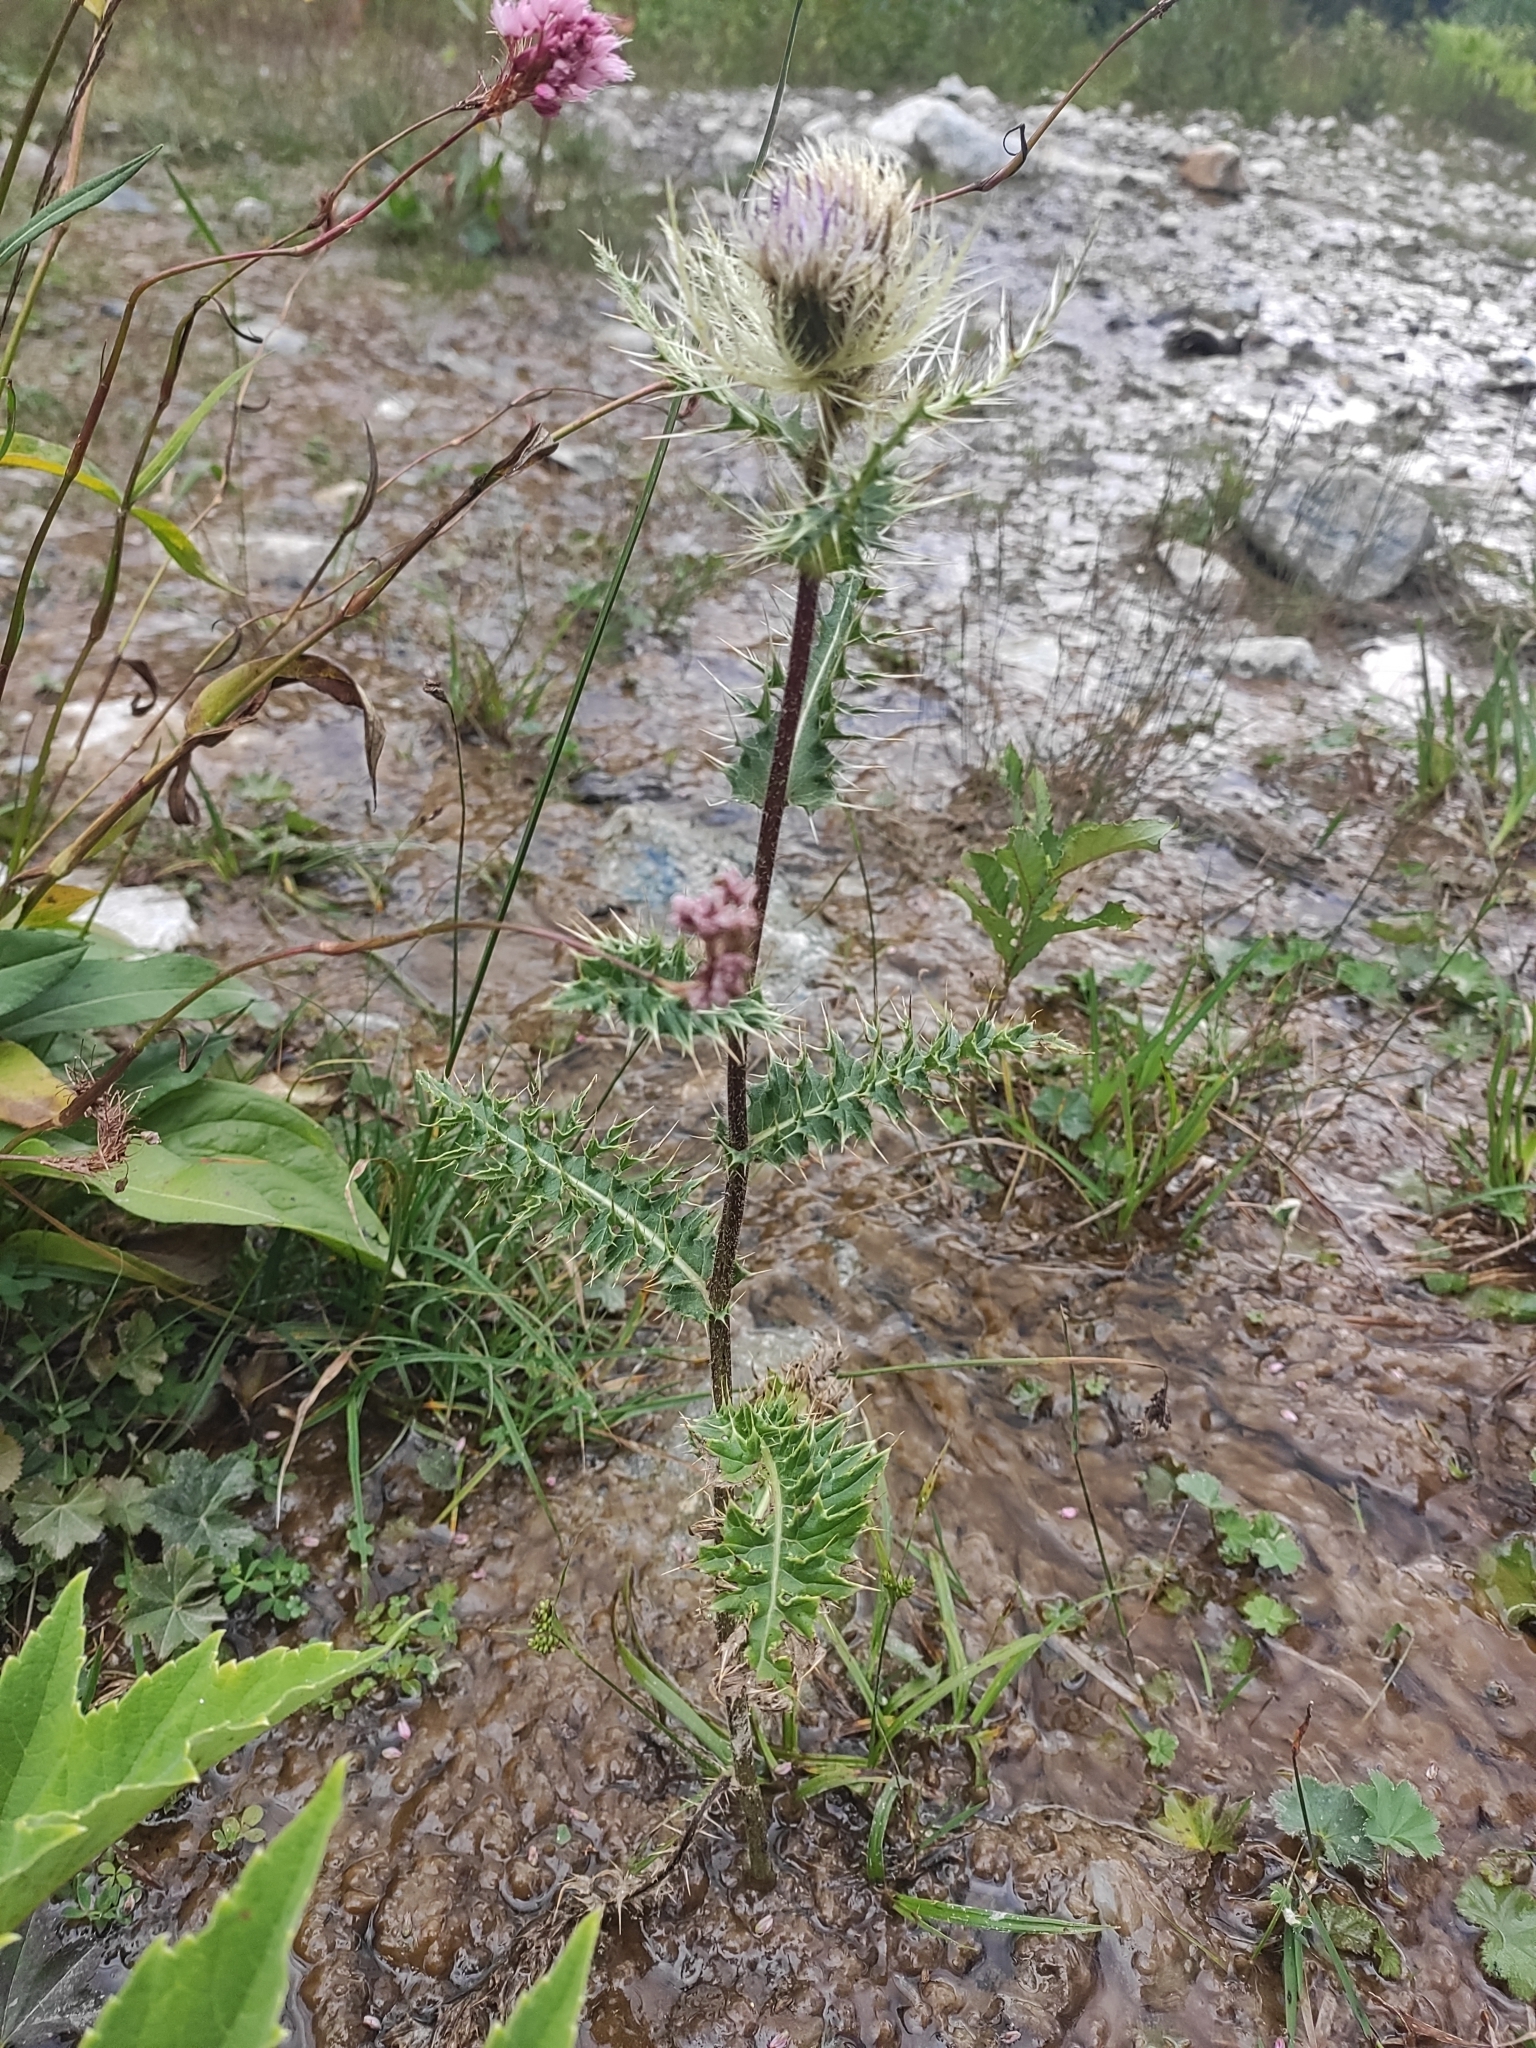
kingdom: Plantae
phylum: Tracheophyta
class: Magnoliopsida
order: Asterales
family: Asteraceae
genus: Cirsium
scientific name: Cirsium obvallatum
